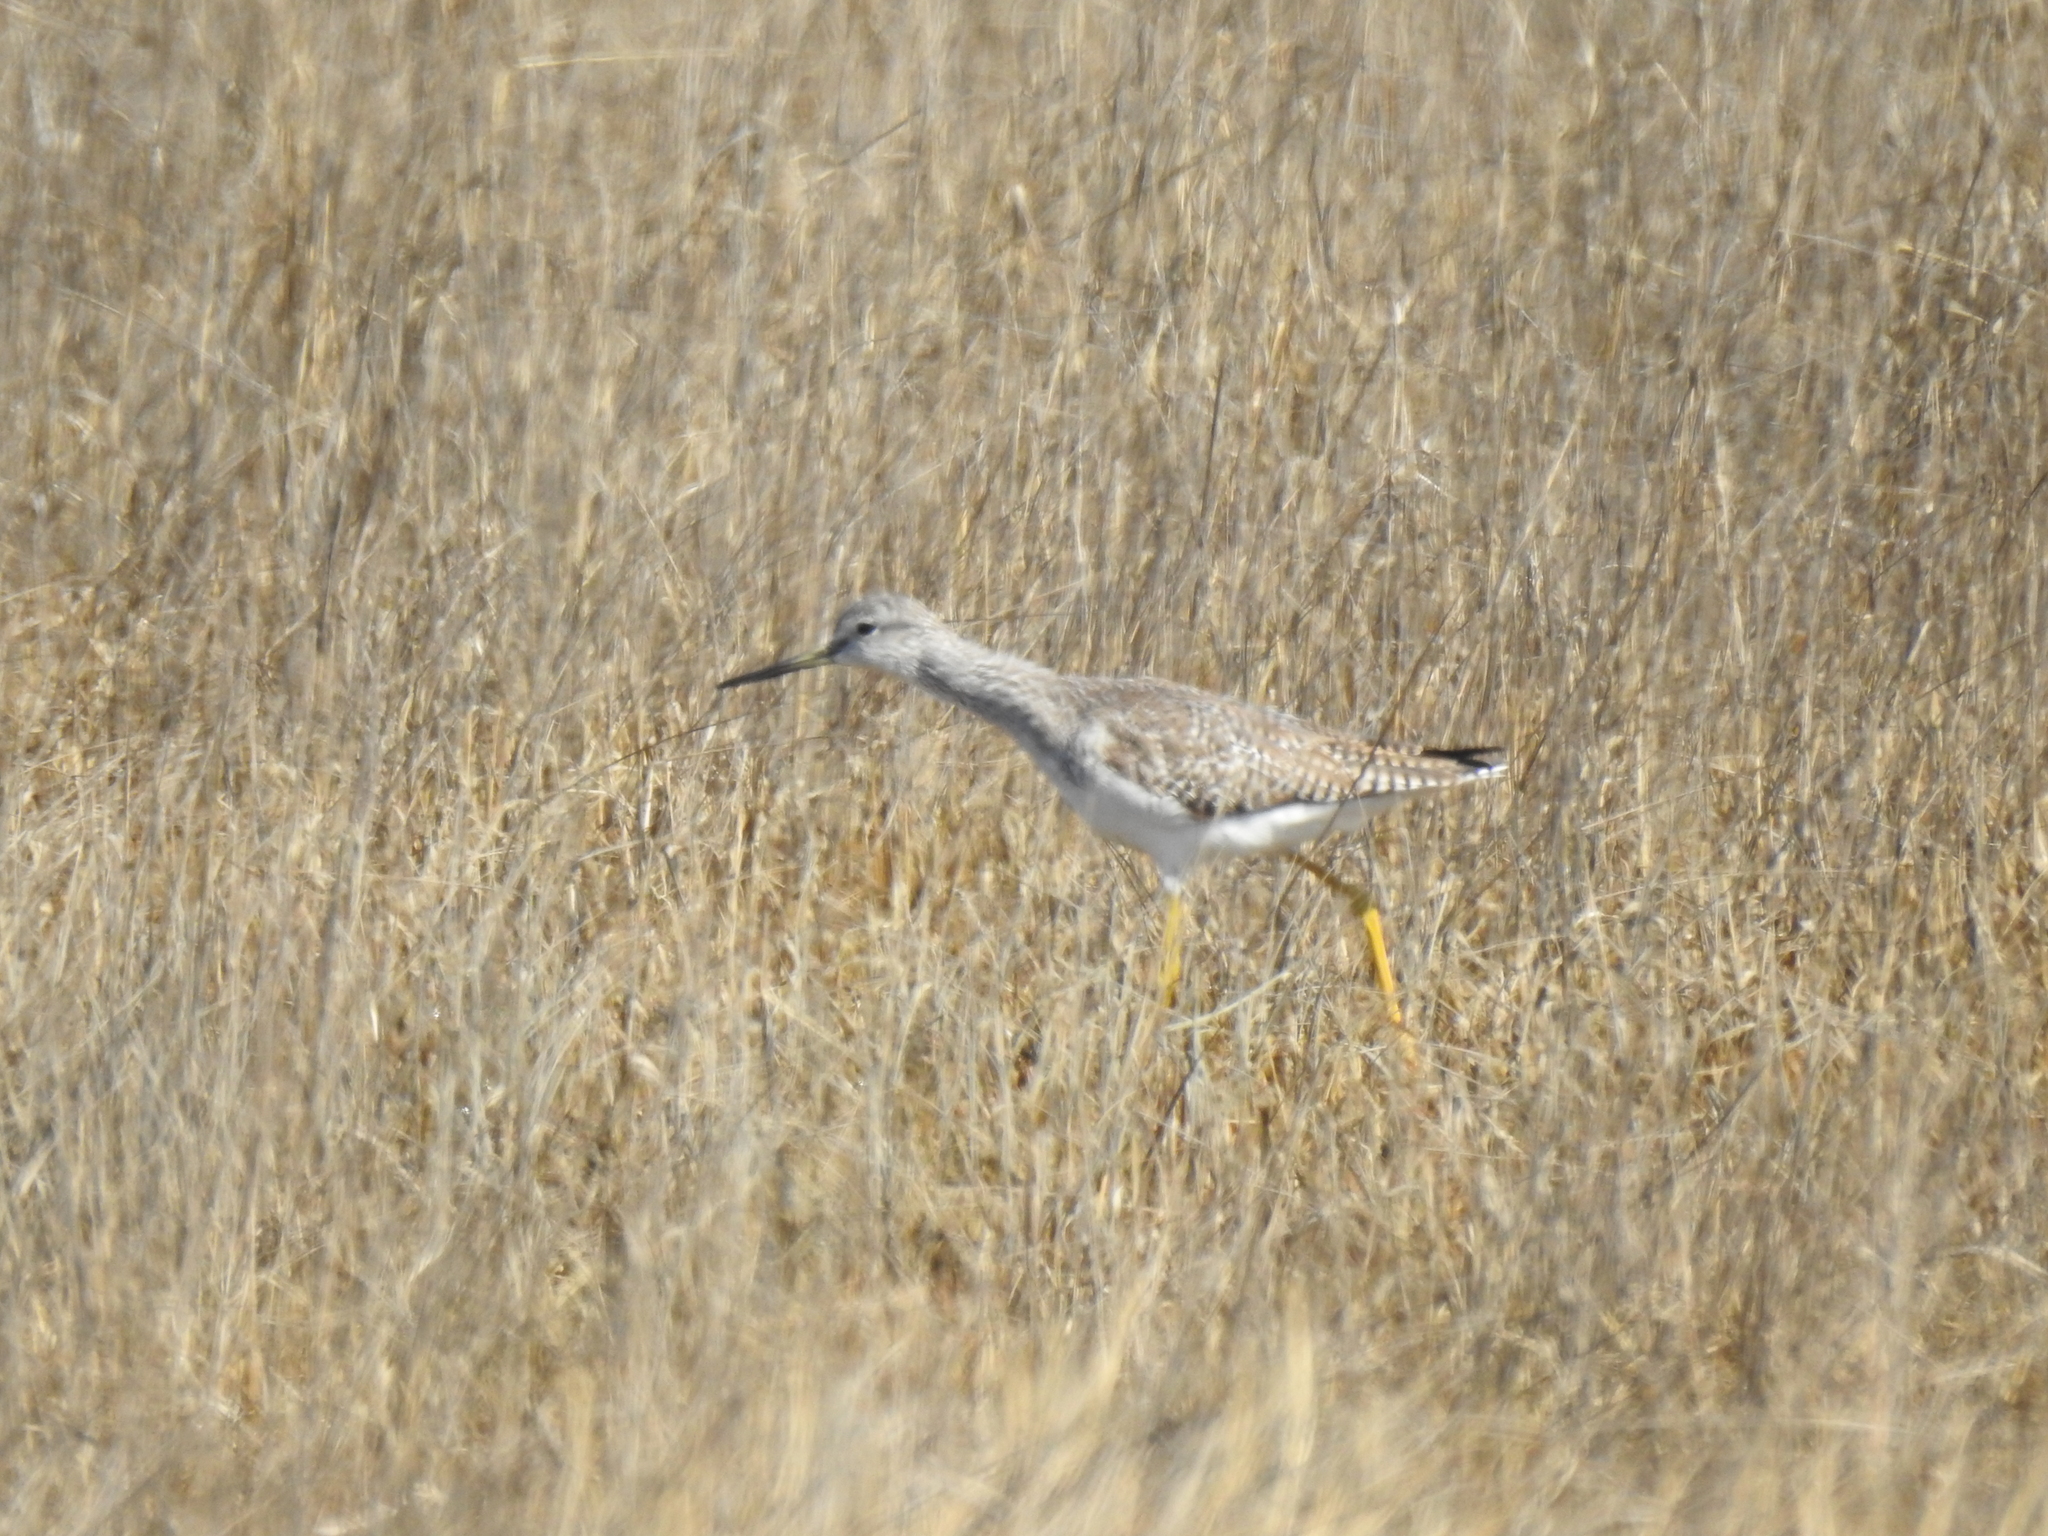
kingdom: Animalia
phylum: Chordata
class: Aves
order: Charadriiformes
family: Scolopacidae
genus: Tringa
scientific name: Tringa melanoleuca
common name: Greater yellowlegs
